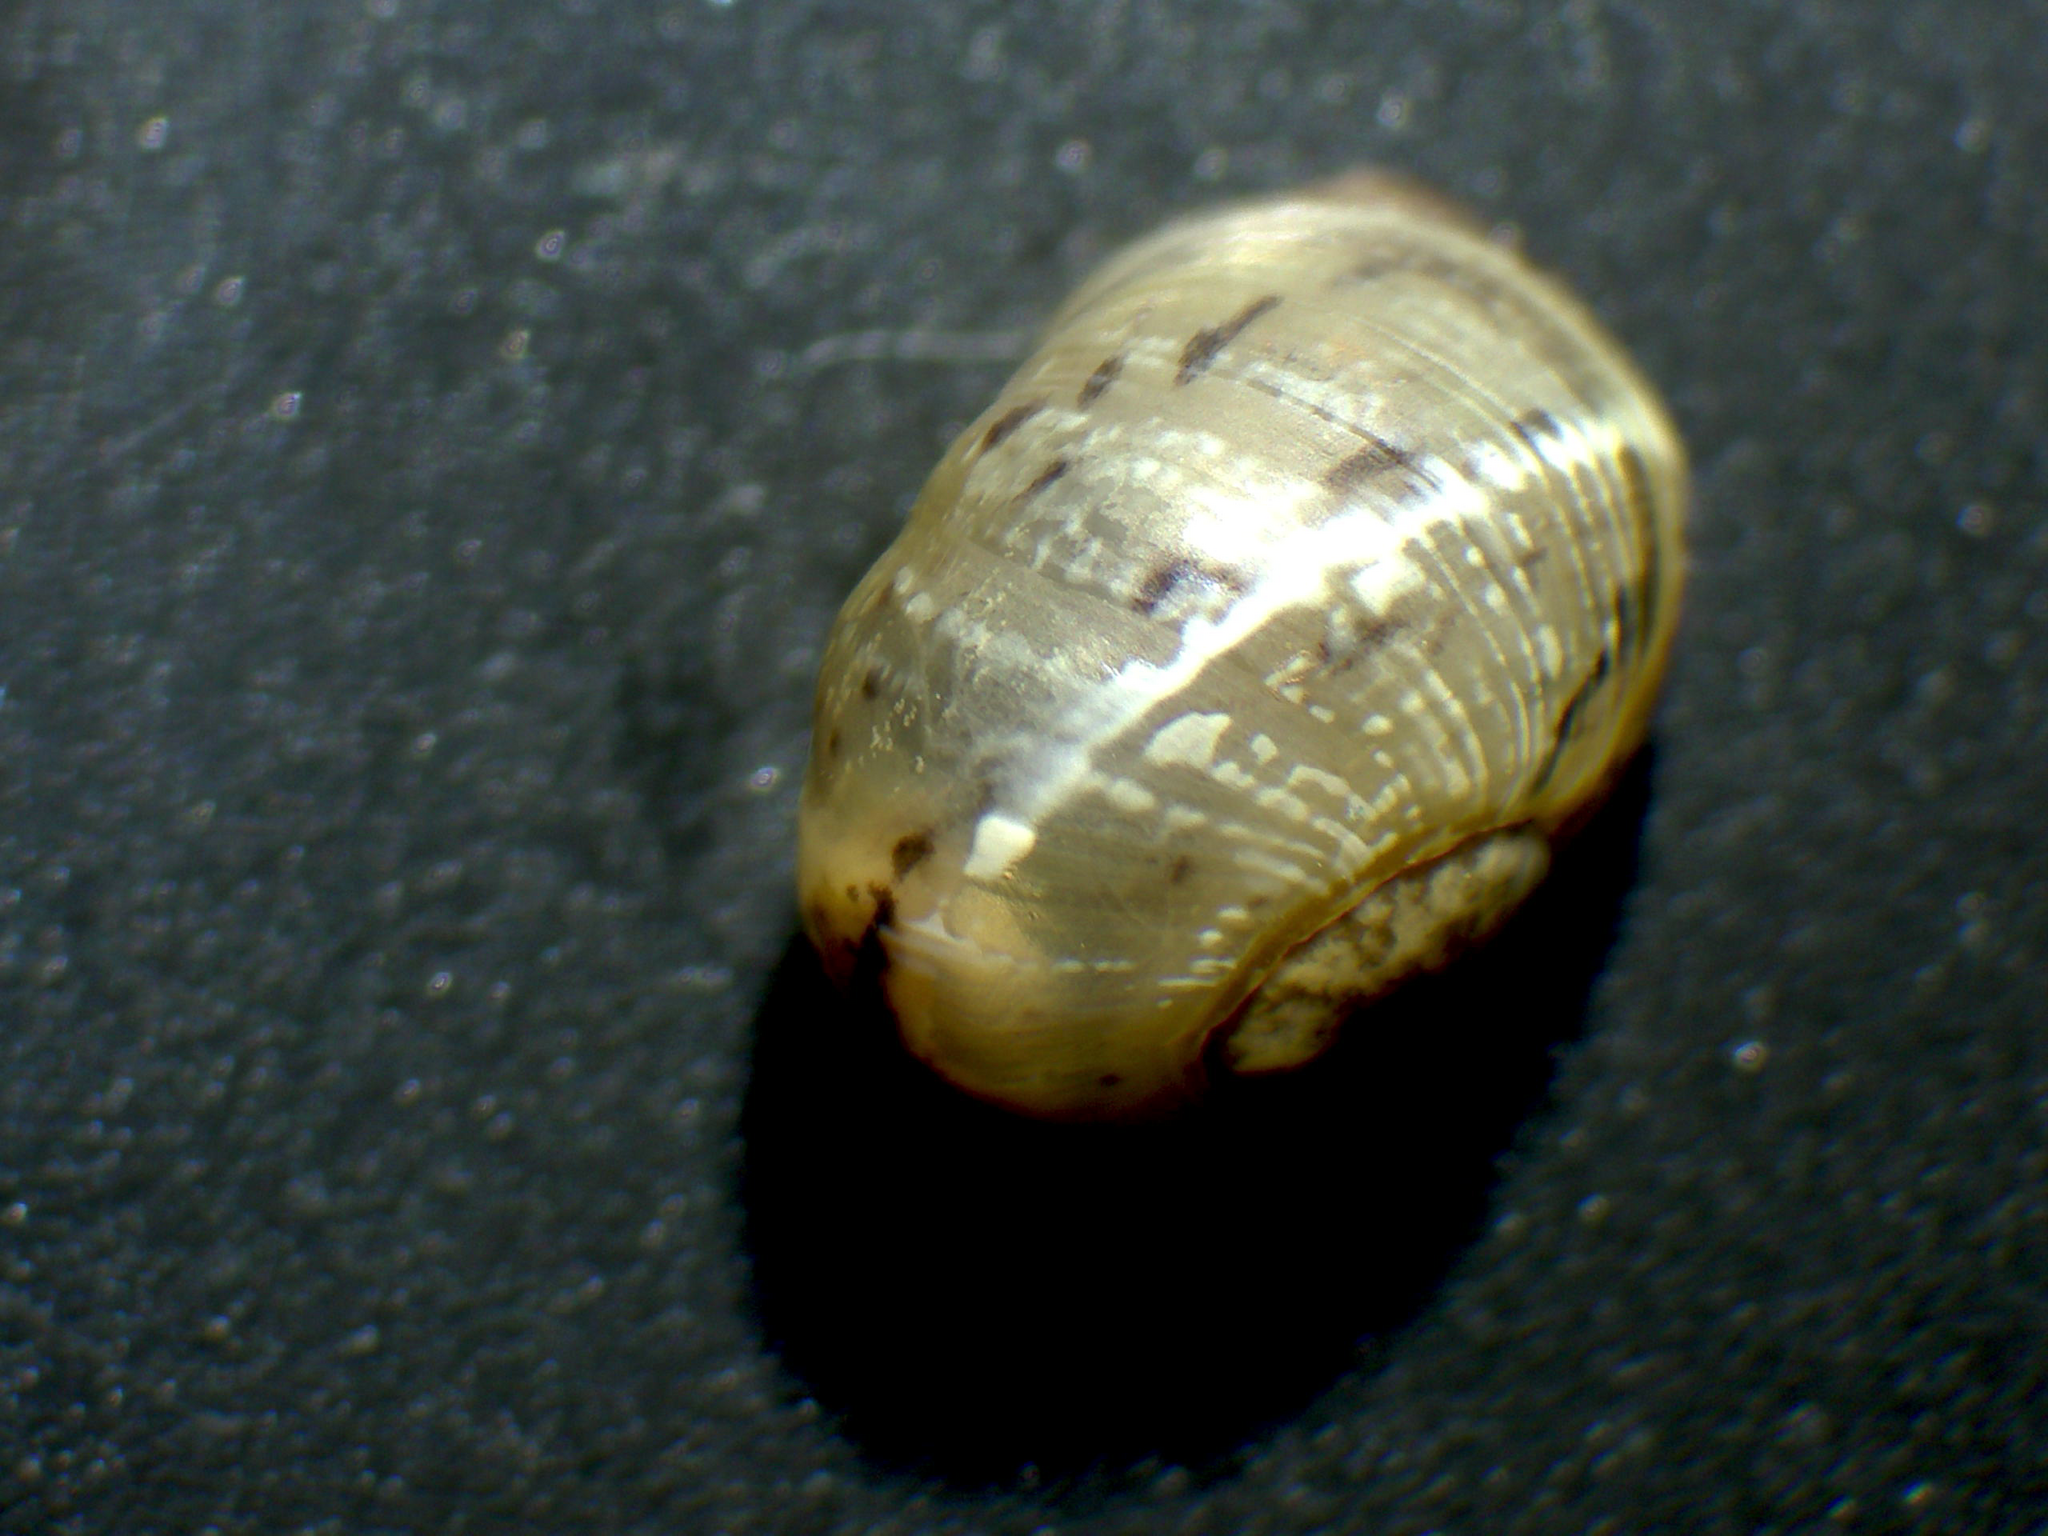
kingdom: Animalia
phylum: Mollusca
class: Gastropoda
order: Stylommatophora
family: Helicidae
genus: Cornu
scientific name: Cornu aspersum
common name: Brown garden snail
